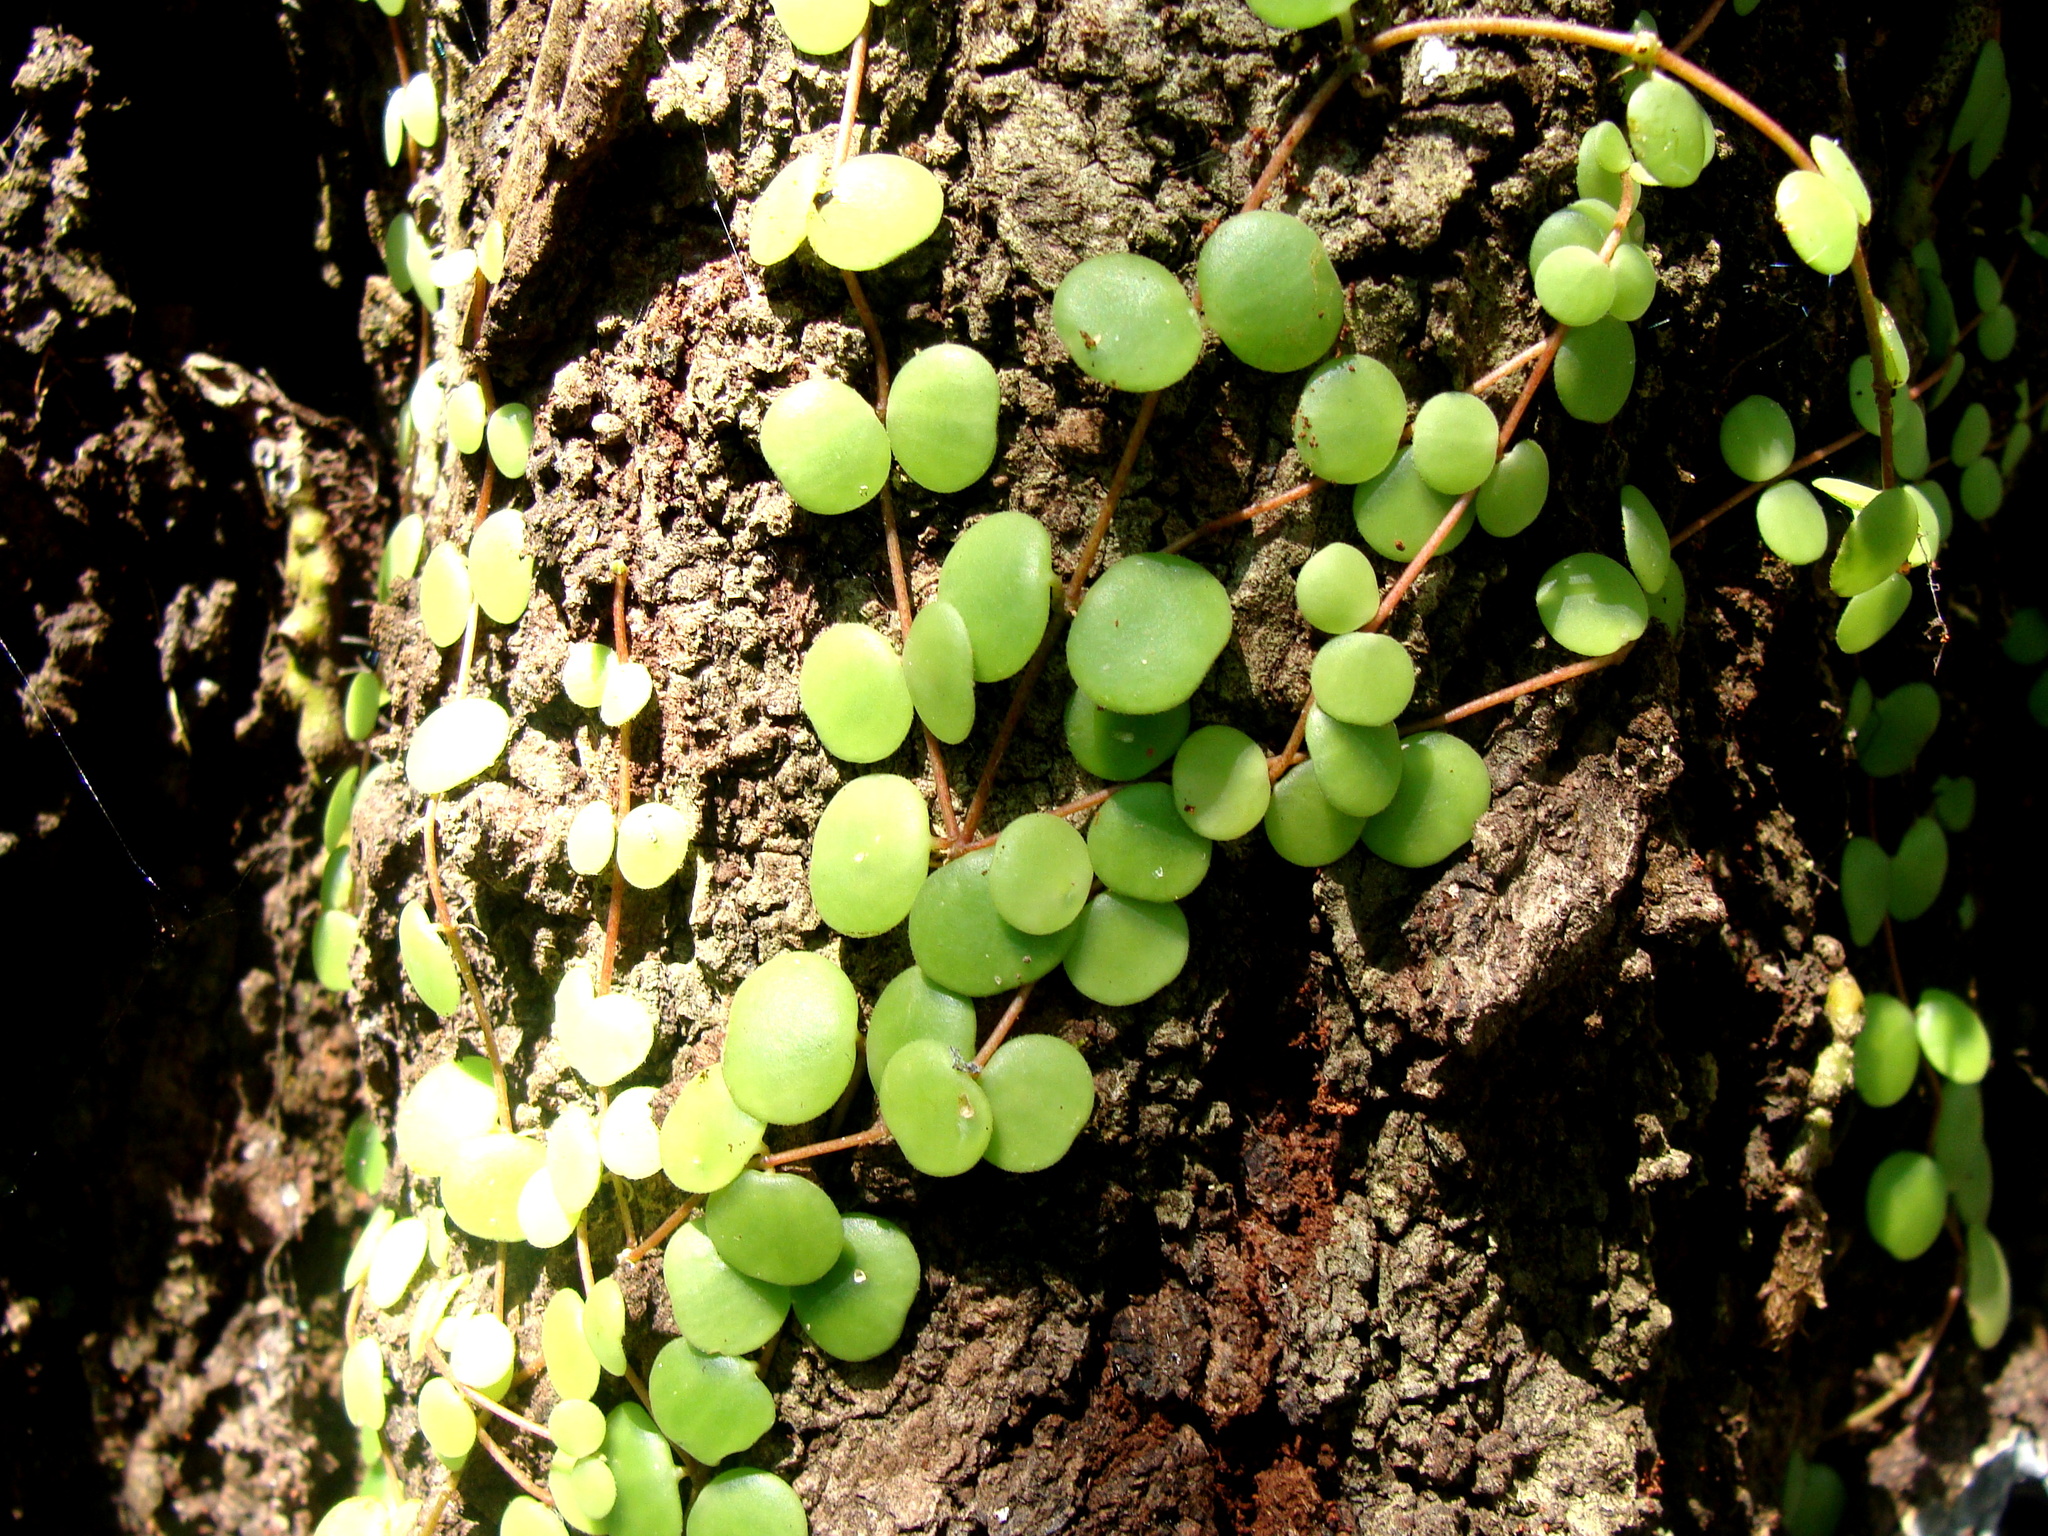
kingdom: Plantae
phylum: Tracheophyta
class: Magnoliopsida
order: Piperales
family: Piperaceae
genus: Peperomia
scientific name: Peperomia cyclophylla
